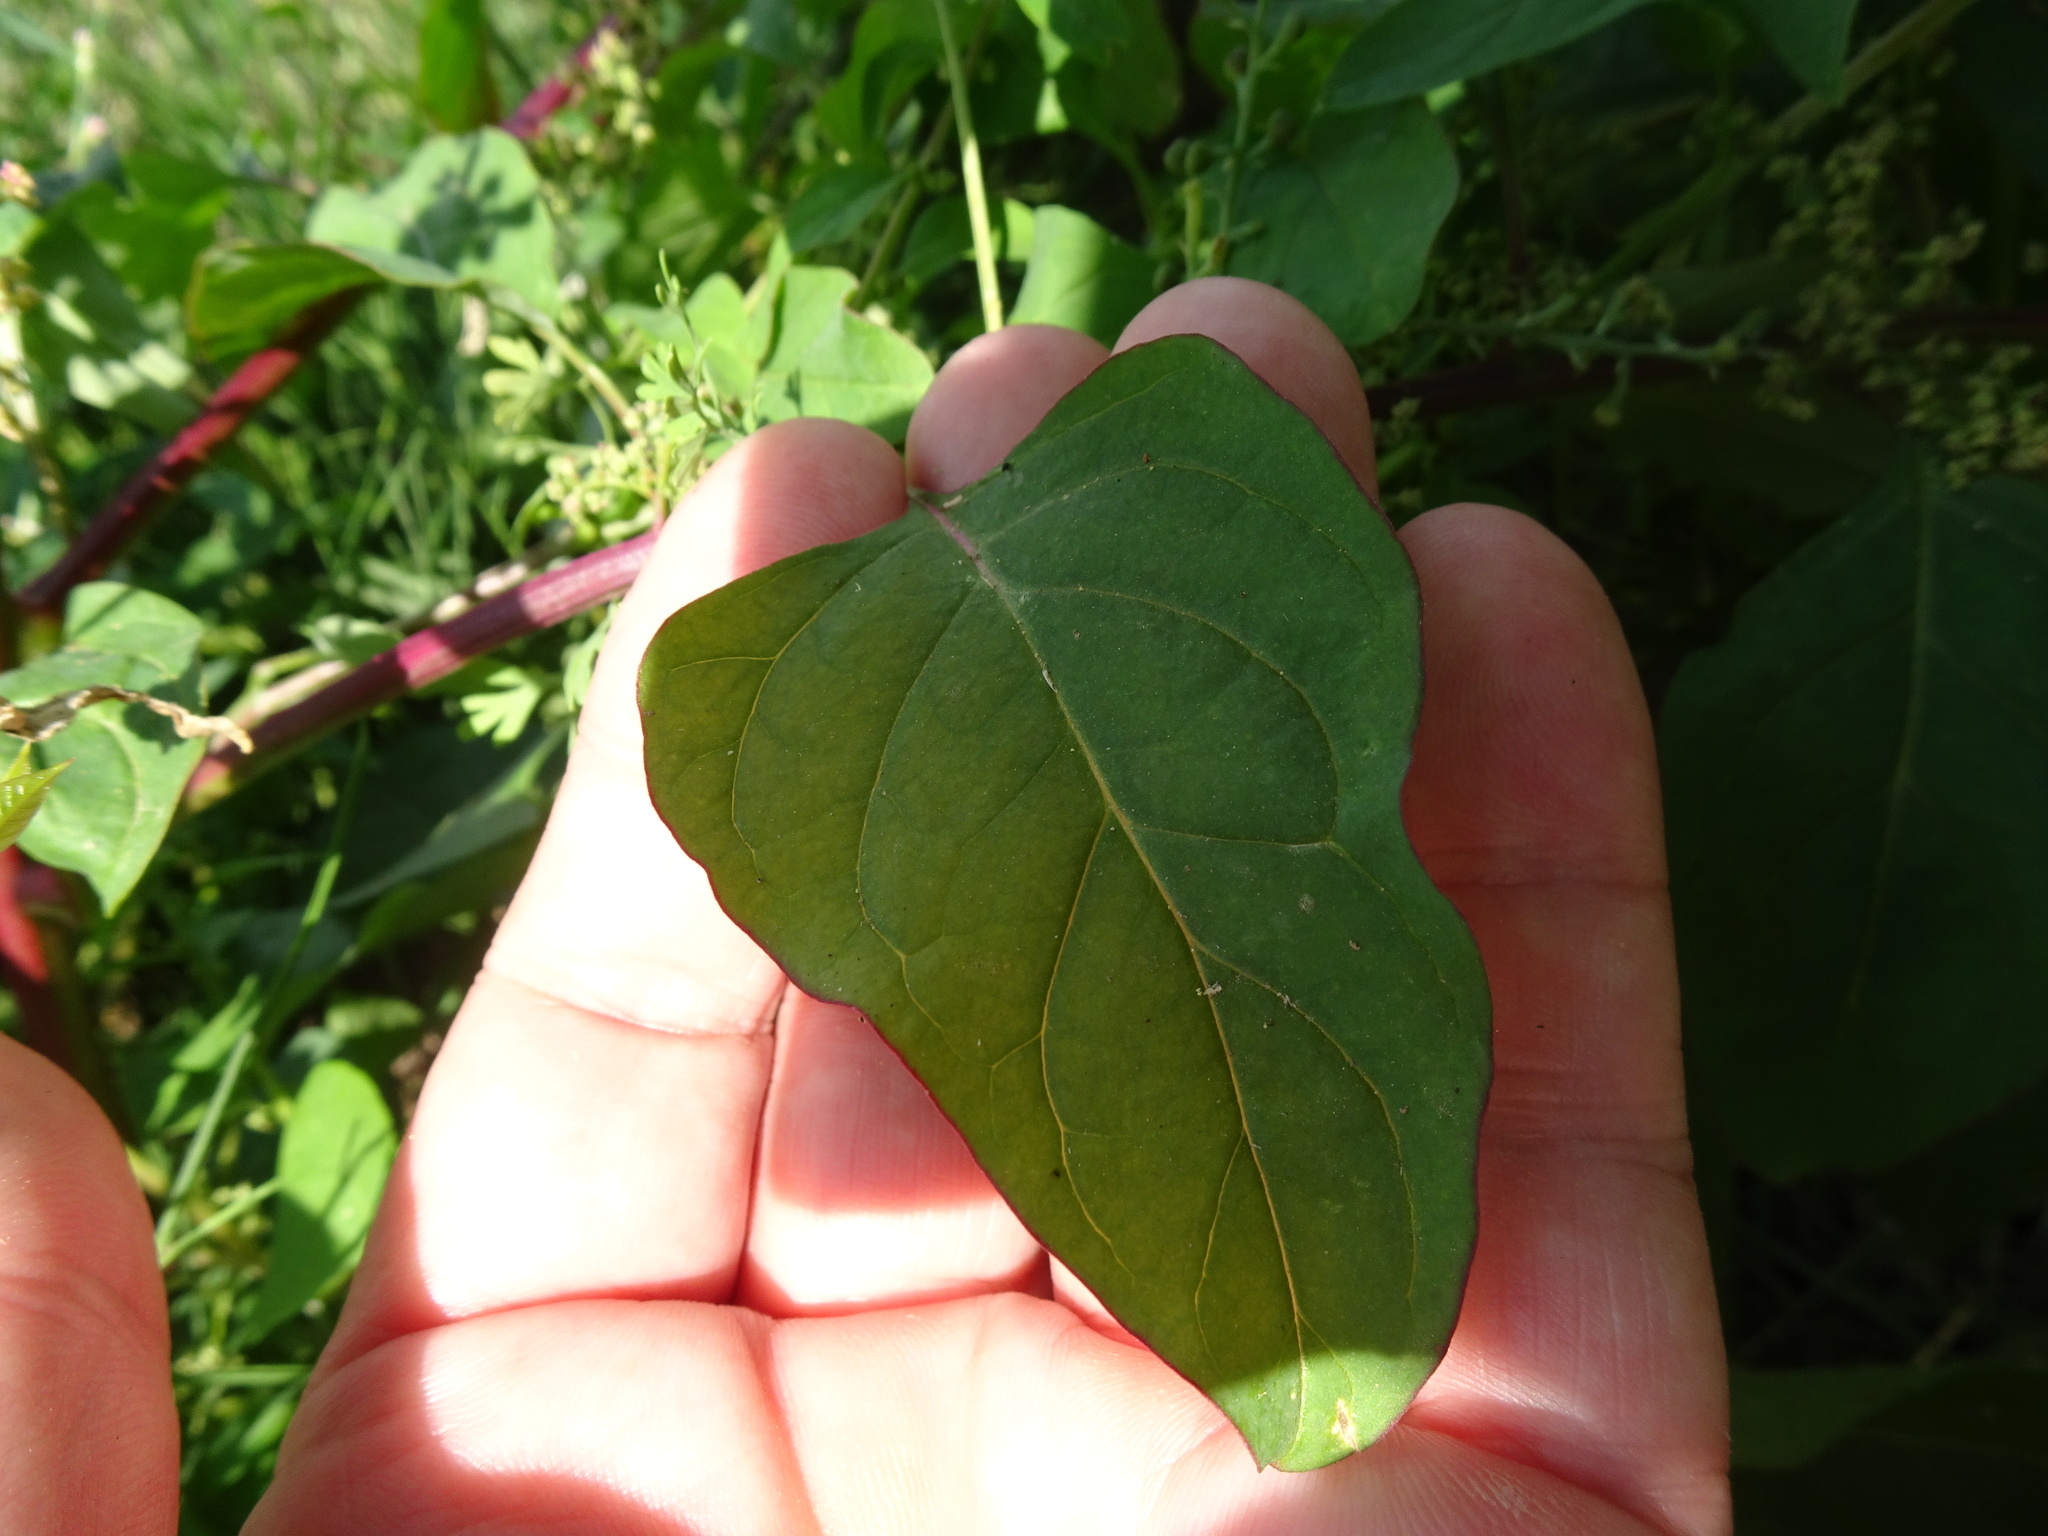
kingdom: Plantae
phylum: Tracheophyta
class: Magnoliopsida
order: Caryophyllales
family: Amaranthaceae
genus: Lipandra
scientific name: Lipandra polysperma
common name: Many-seed goosefoot
